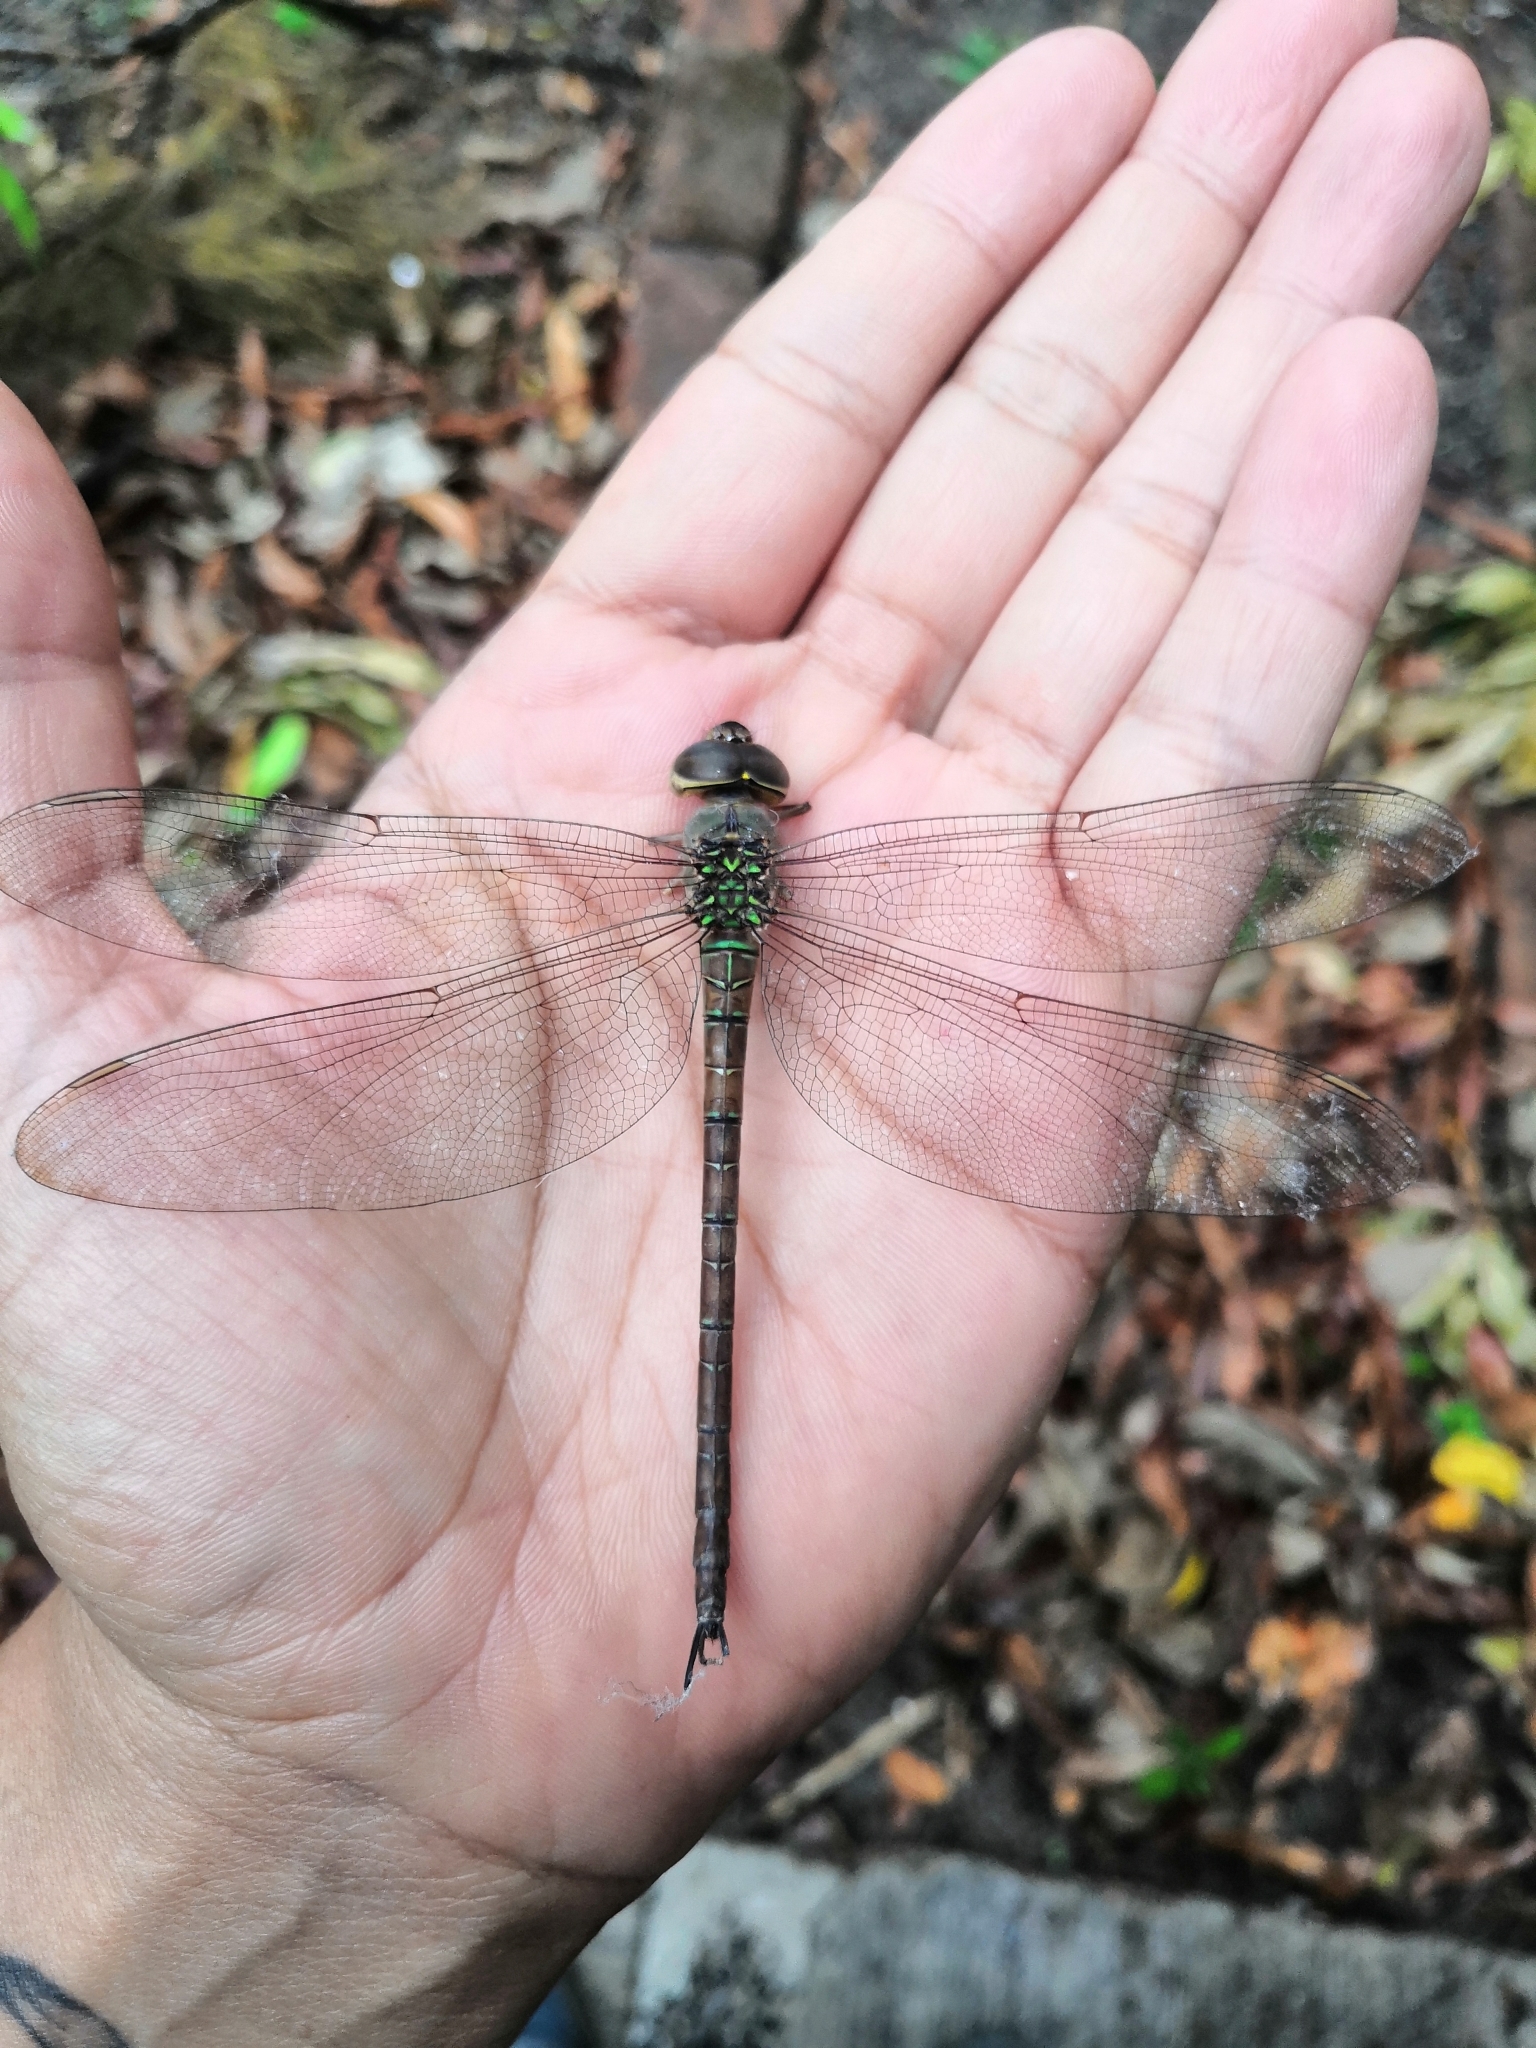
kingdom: Animalia
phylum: Arthropoda
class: Insecta
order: Odonata
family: Aeshnidae
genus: Gynacantha
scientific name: Gynacantha nervosa
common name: Twilight darner
